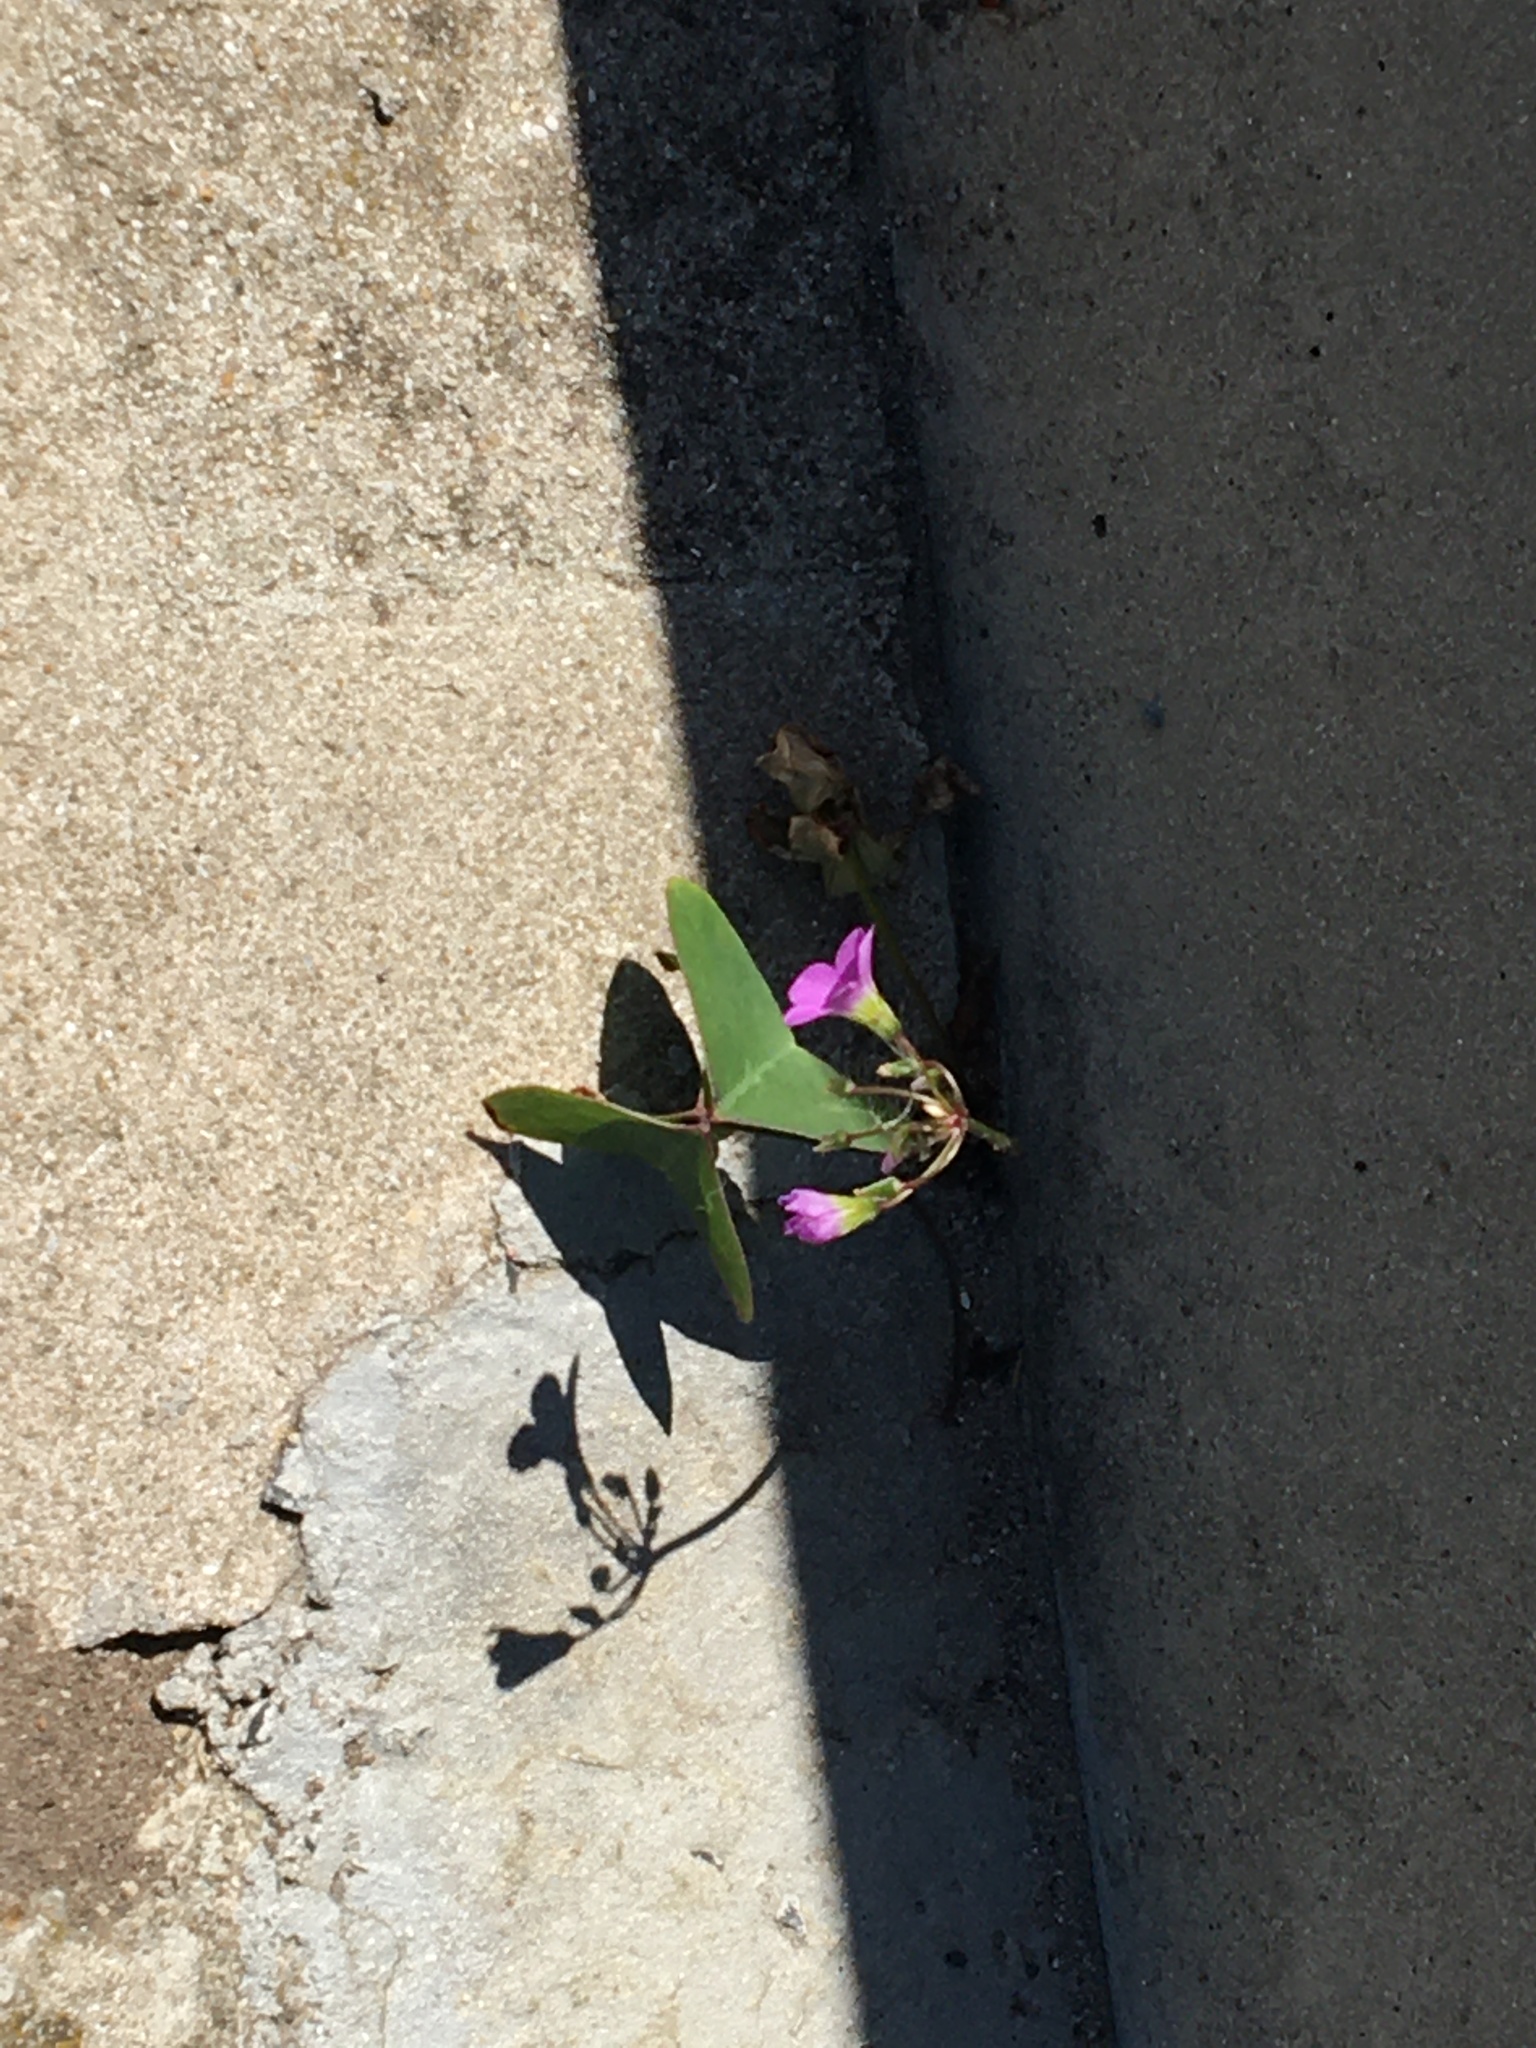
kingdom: Plantae
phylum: Tracheophyta
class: Magnoliopsida
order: Oxalidales
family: Oxalidaceae
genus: Oxalis
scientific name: Oxalis latifolia
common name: Garden pink-sorrel
